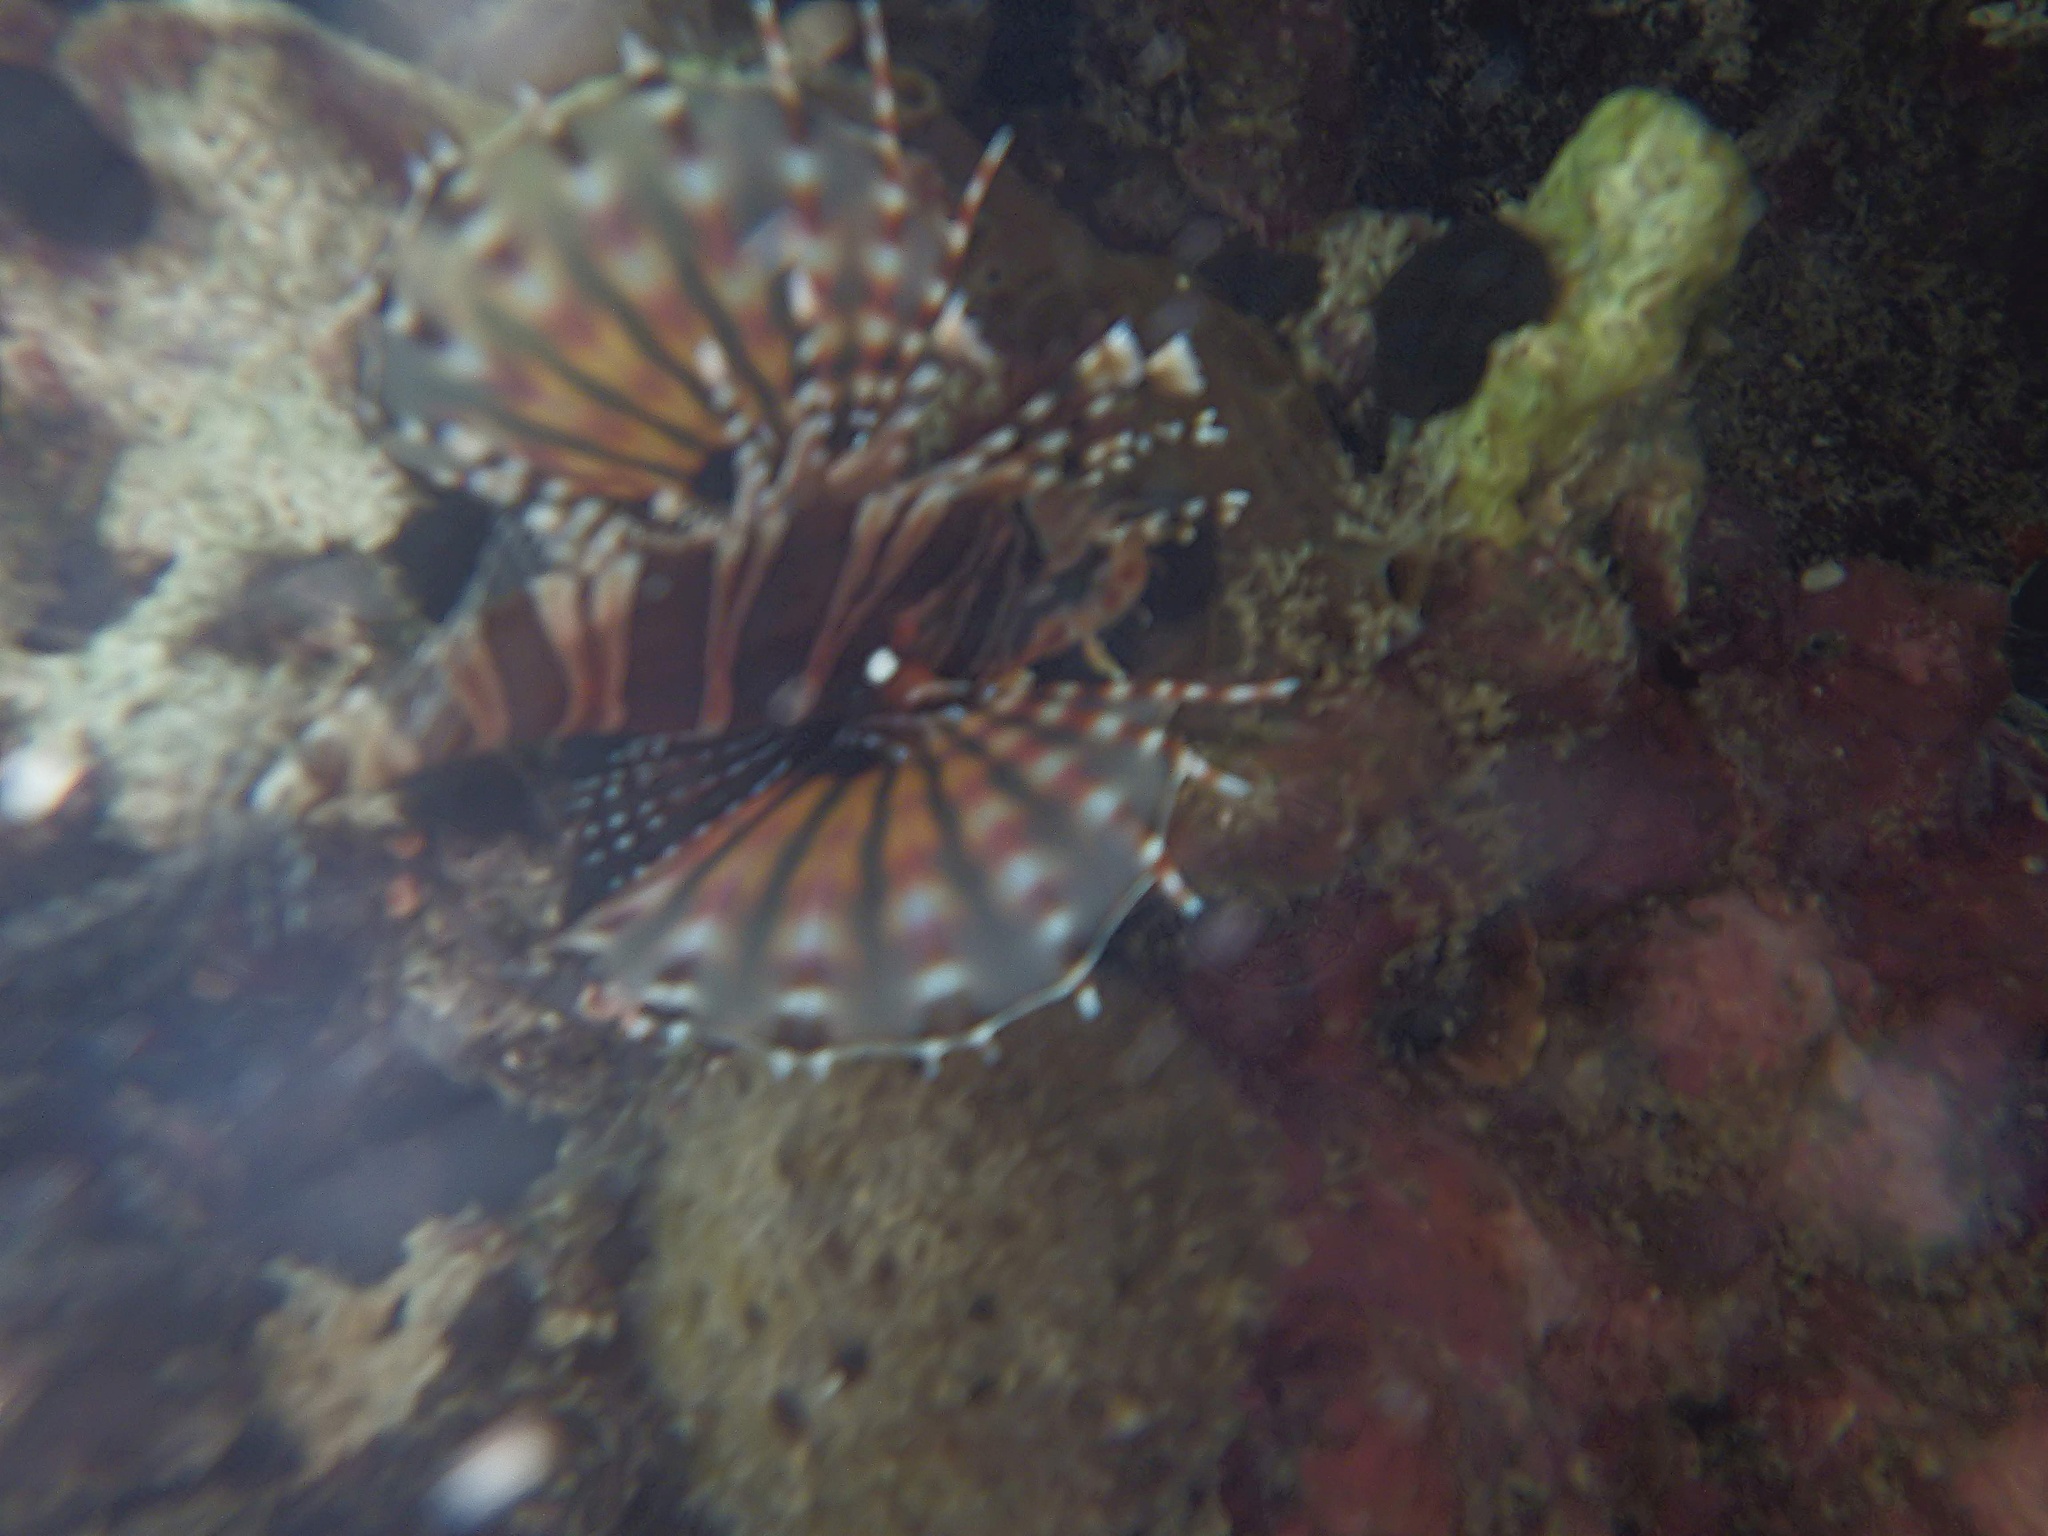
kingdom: Animalia
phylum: Chordata
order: Scorpaeniformes
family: Scorpaenidae
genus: Dendrochirus
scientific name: Dendrochirus zebra
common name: Zebra lionfish
